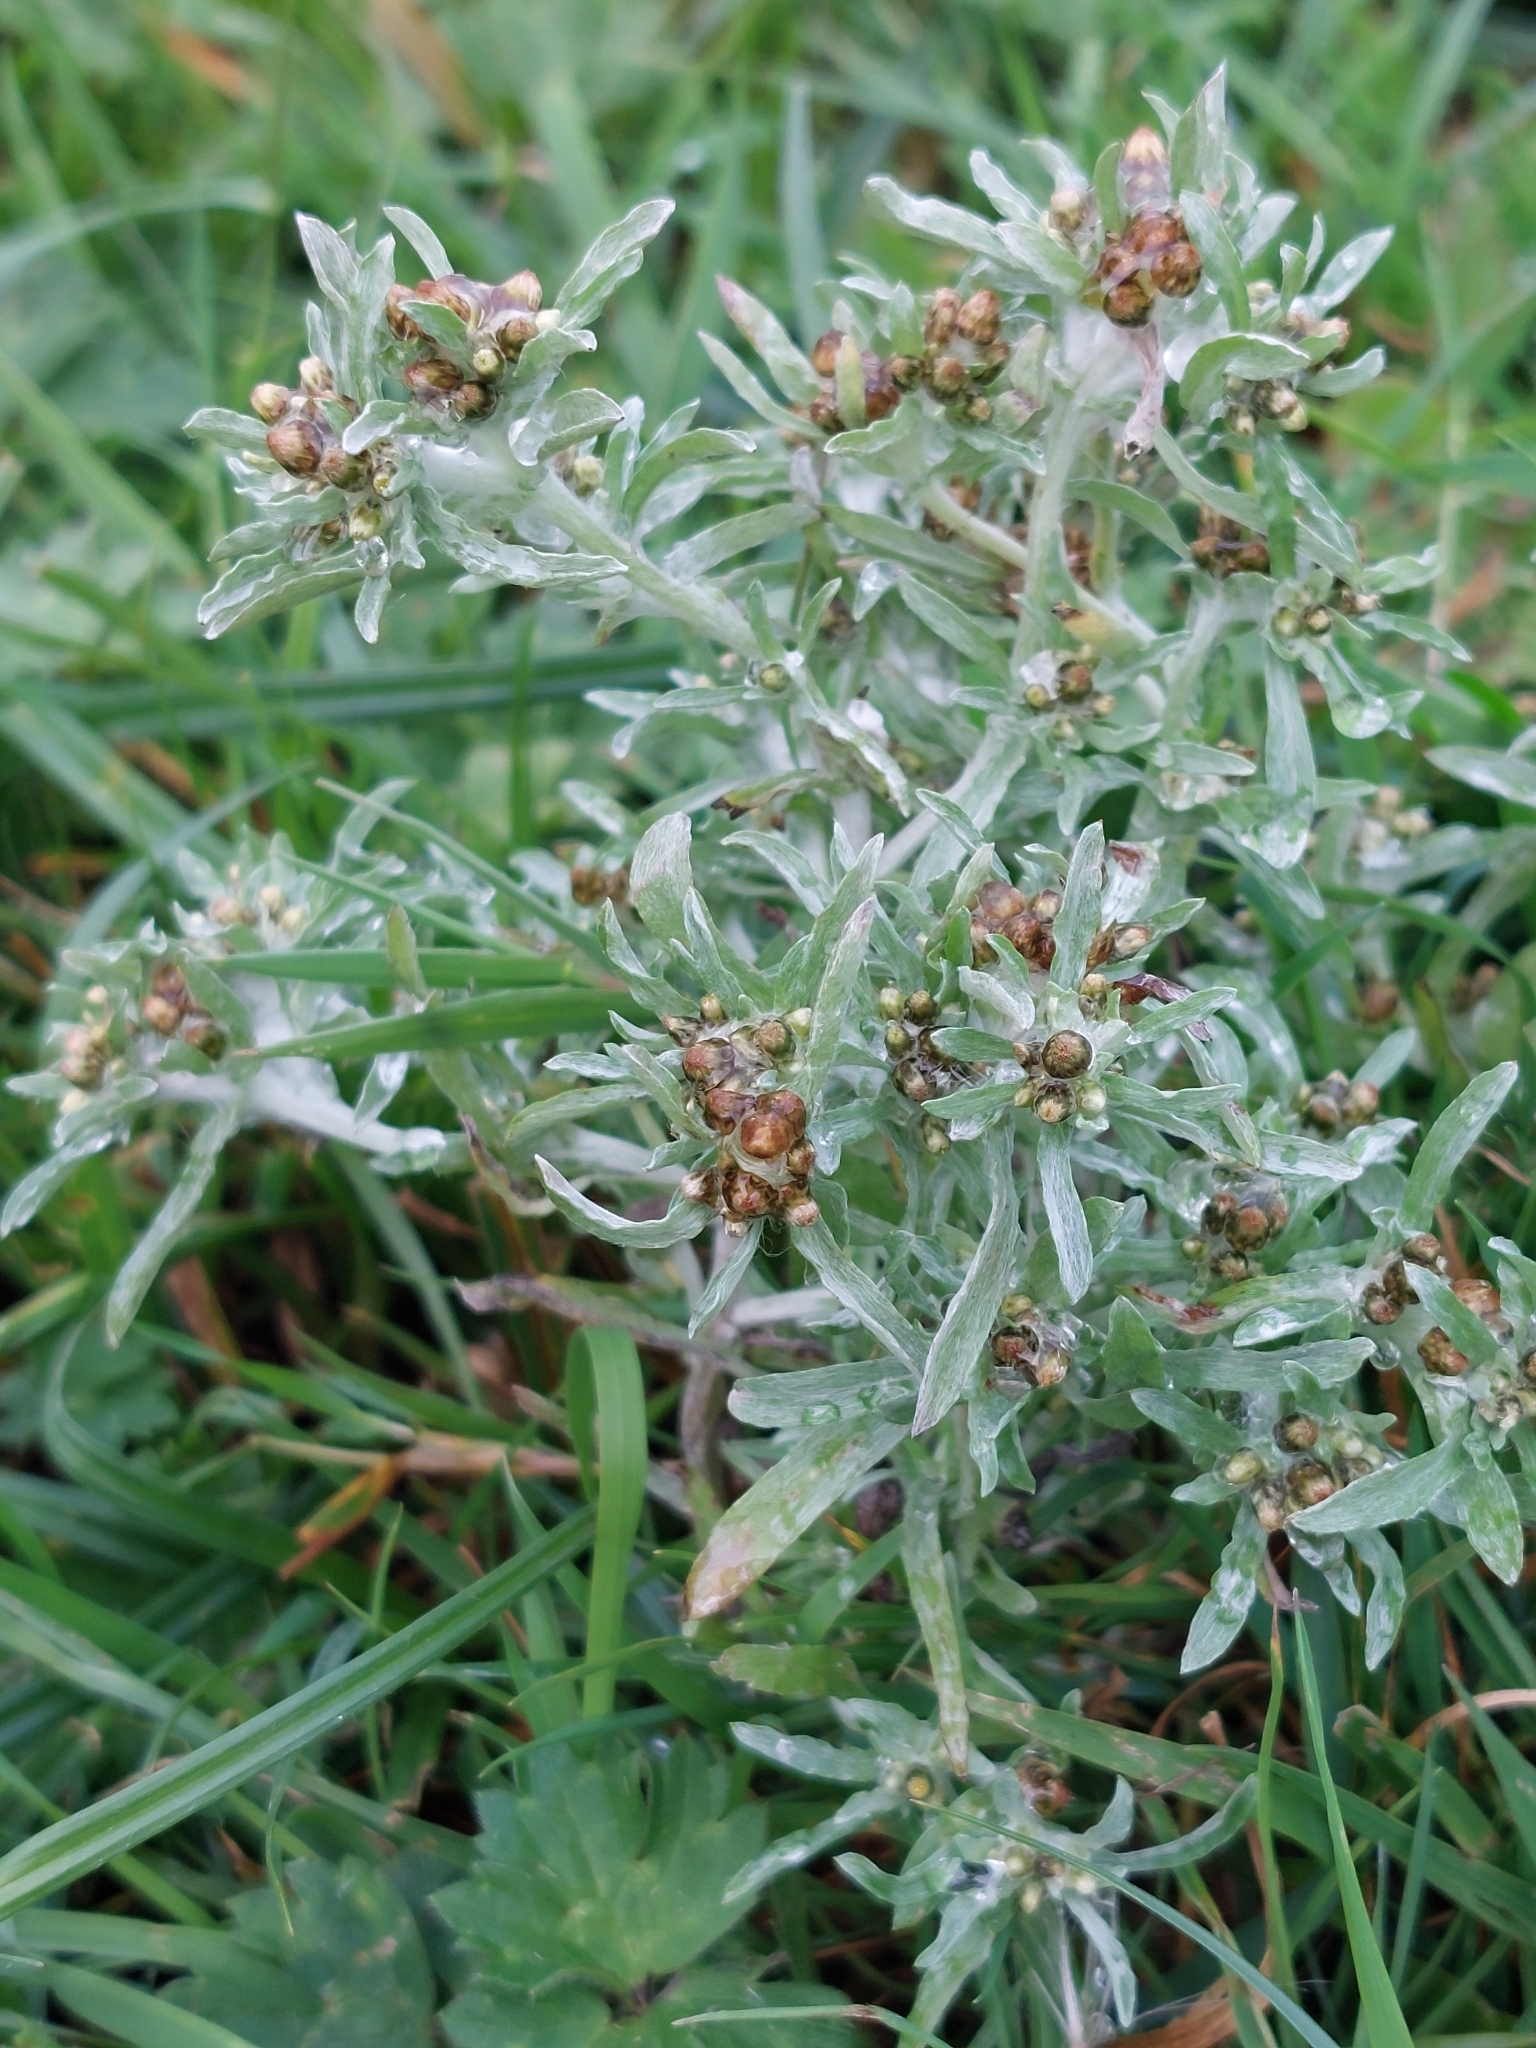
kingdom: Plantae
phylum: Tracheophyta
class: Magnoliopsida
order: Asterales
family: Asteraceae
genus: Gnaphalium
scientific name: Gnaphalium uliginosum
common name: Marsh cudweed
